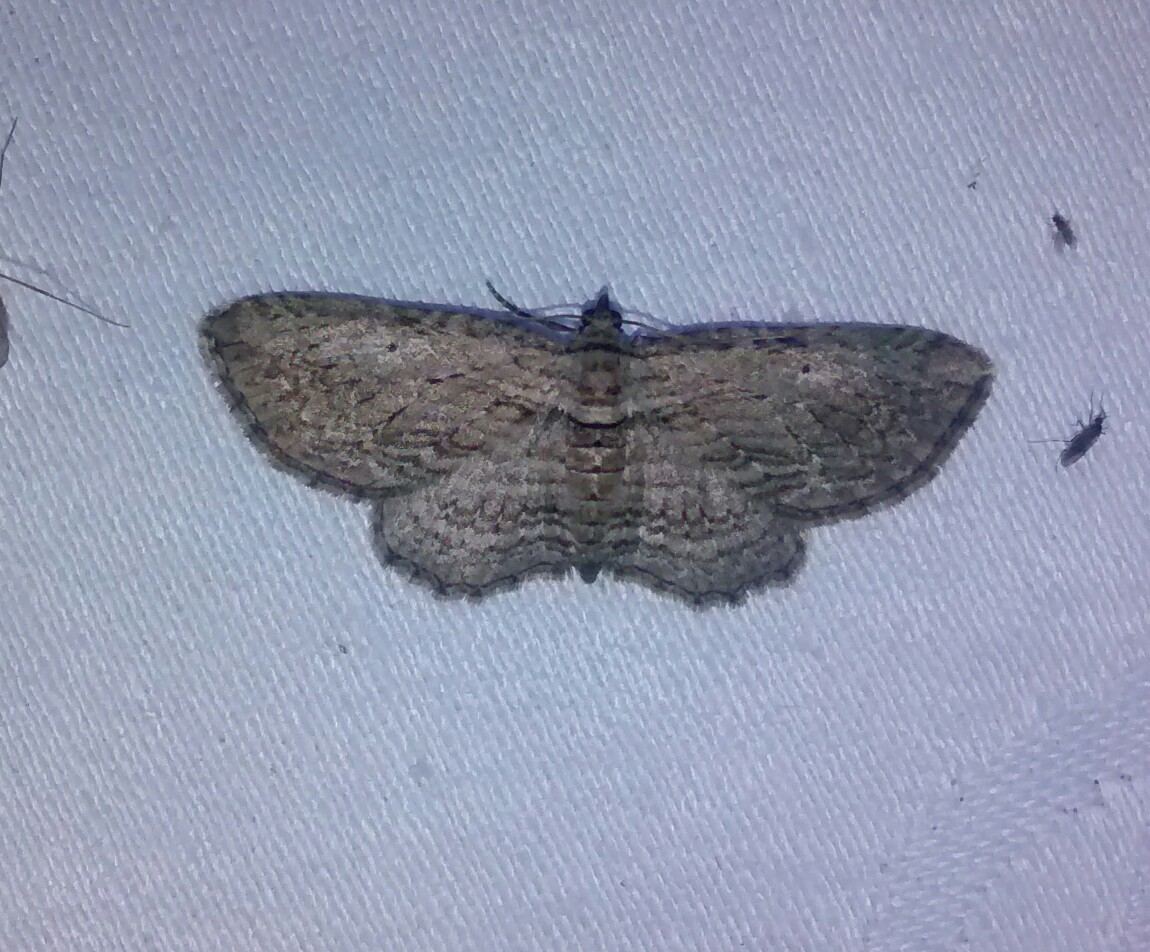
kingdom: Animalia
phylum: Arthropoda
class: Insecta
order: Lepidoptera
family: Geometridae
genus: Horisme
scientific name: Horisme intestinata
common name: Brown bark carpet
